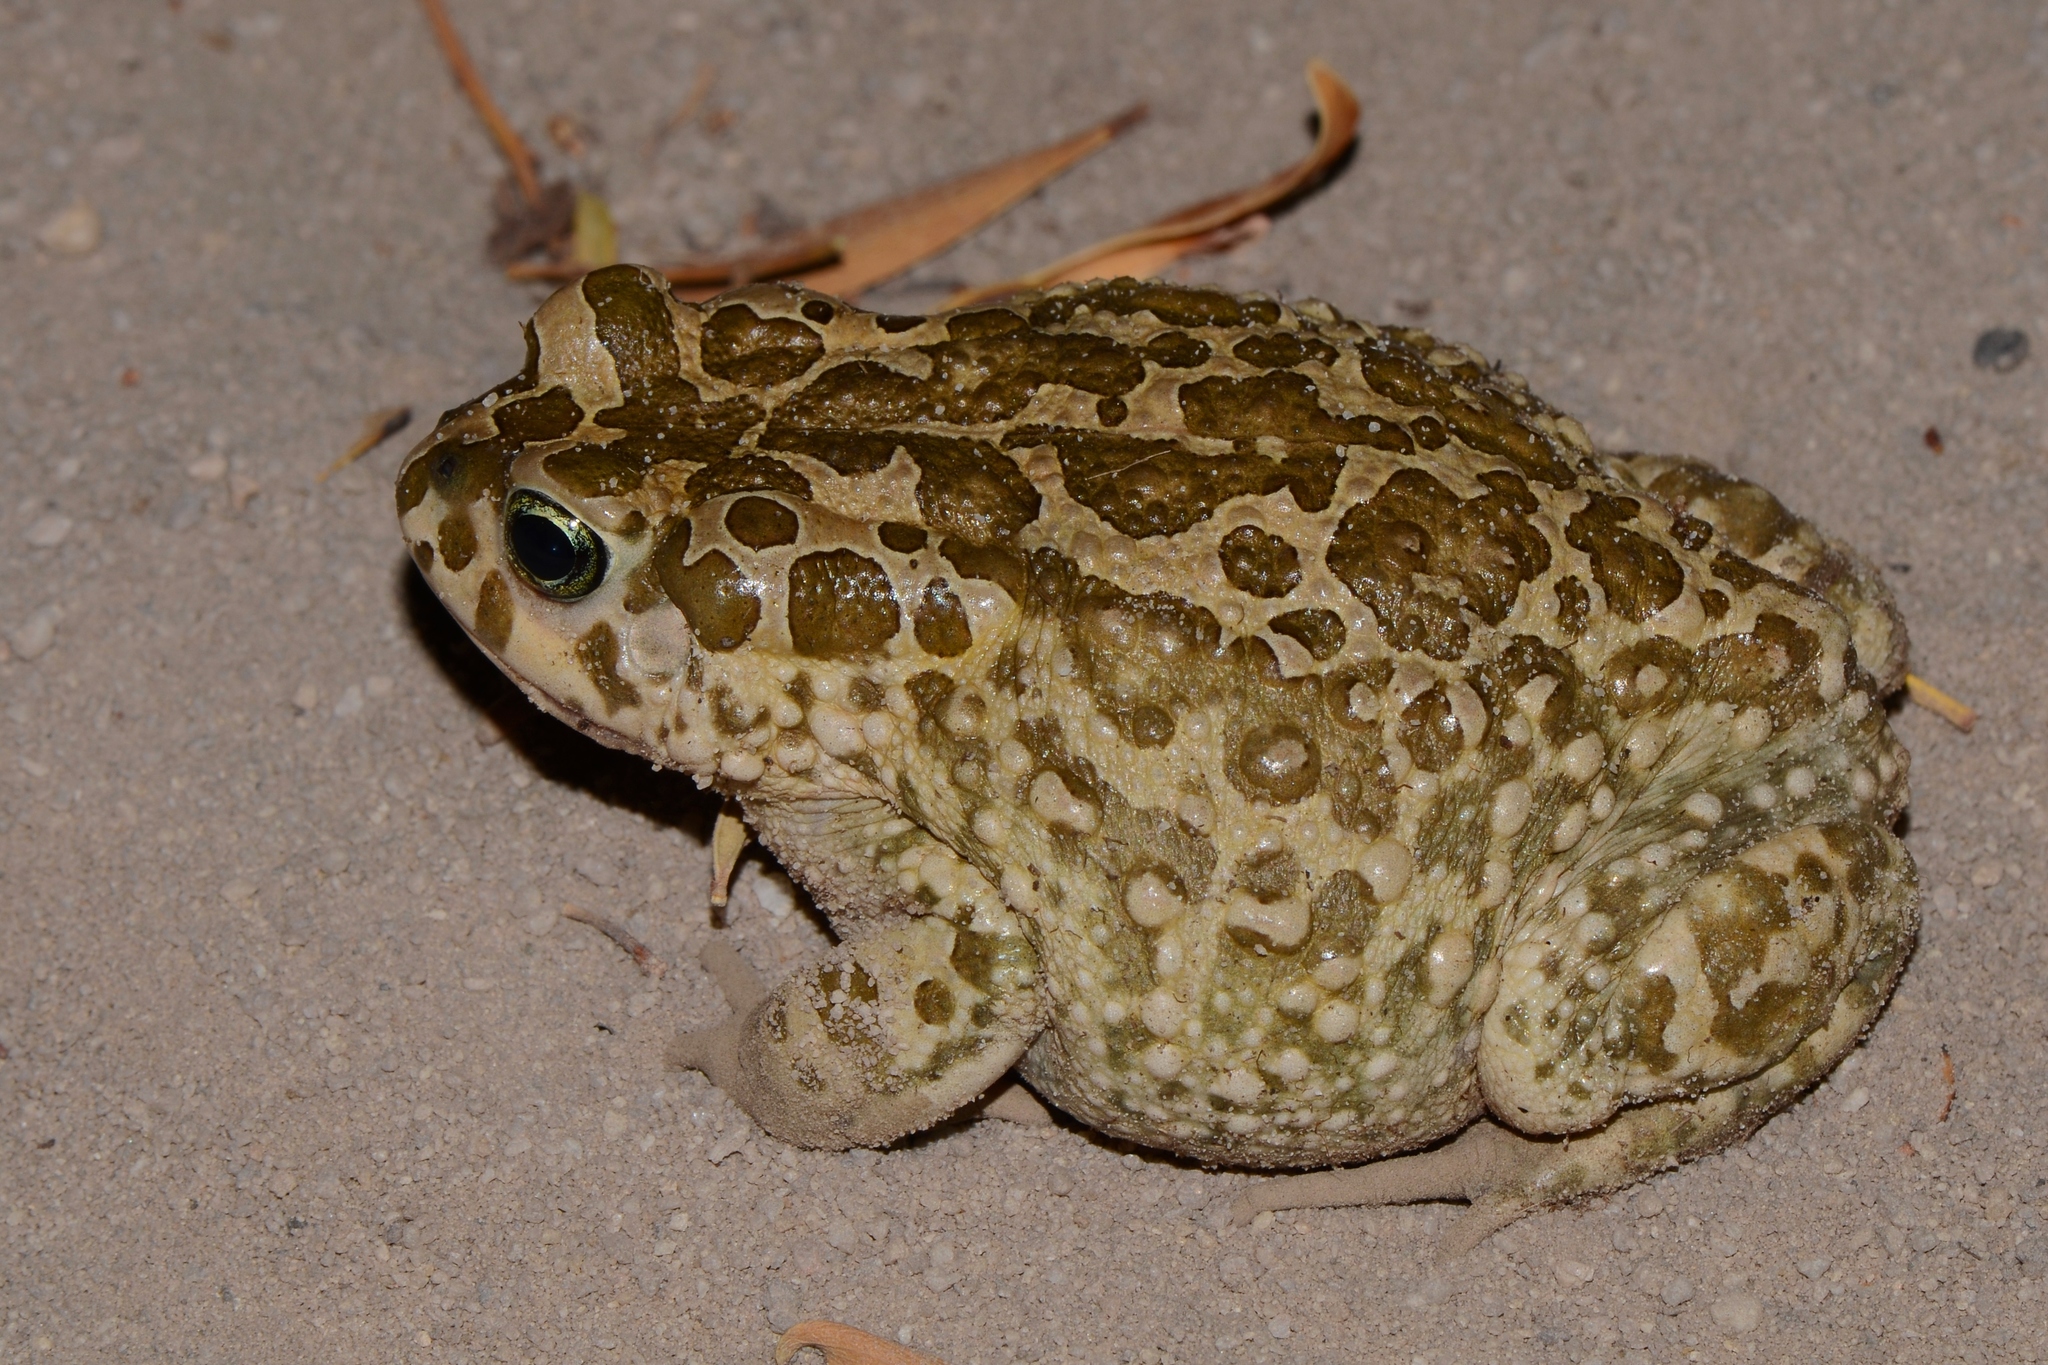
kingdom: Animalia
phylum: Chordata
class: Amphibia
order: Anura
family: Bufonidae
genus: Vandijkophrynus
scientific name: Vandijkophrynus gariepensis
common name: Gariep toad
